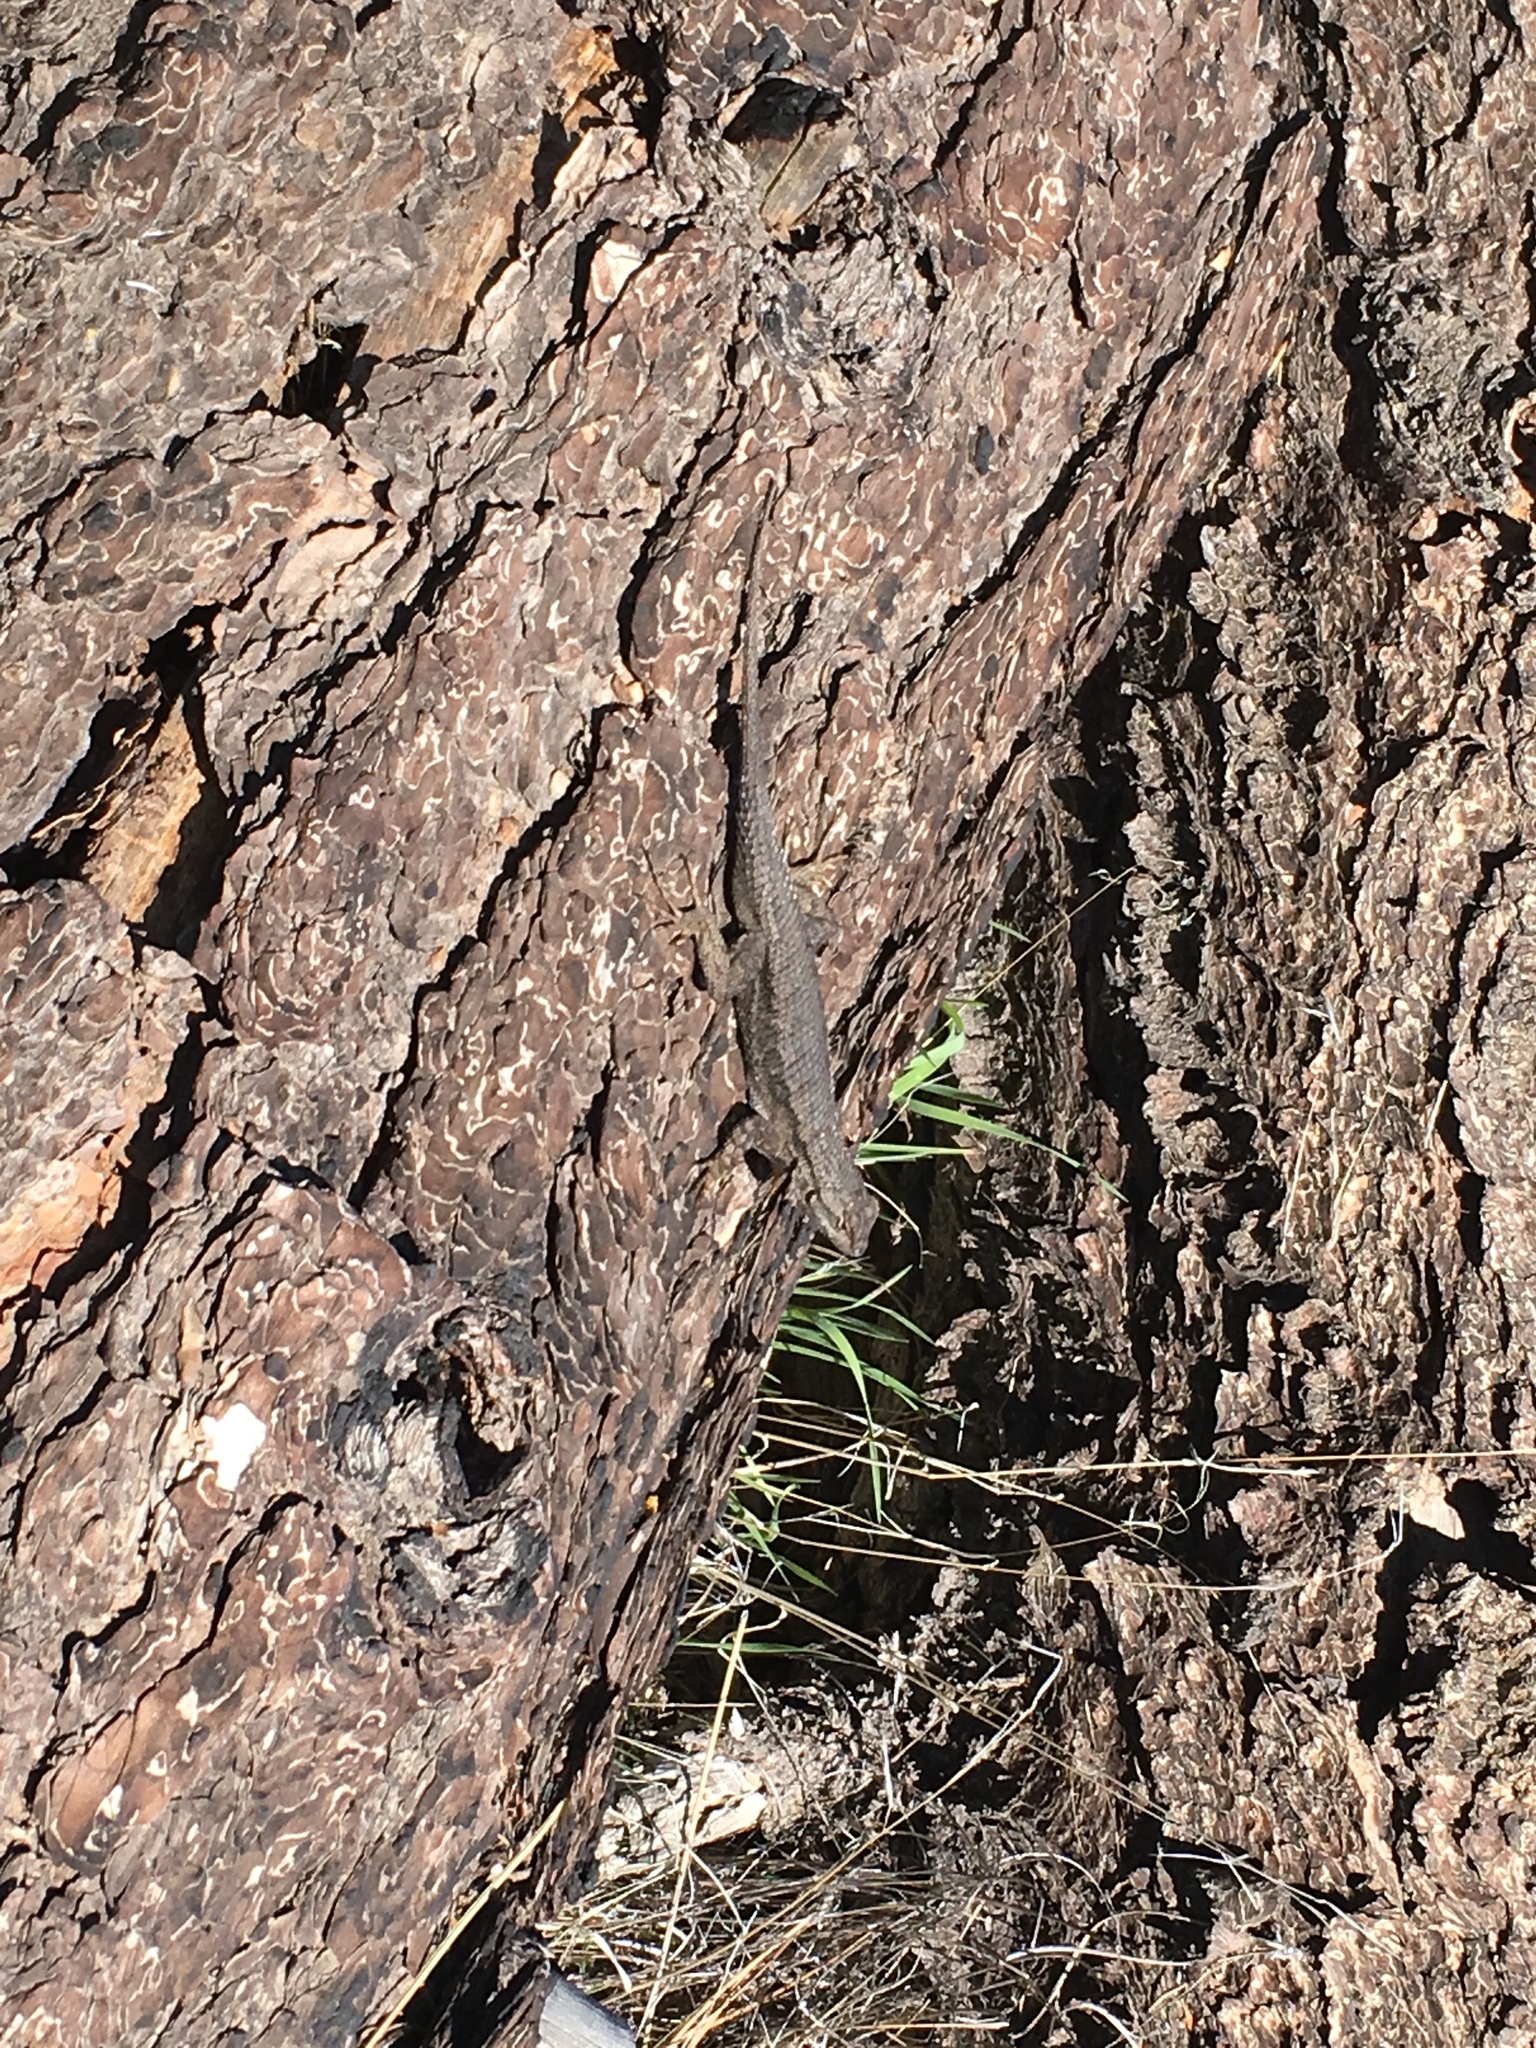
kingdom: Animalia
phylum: Chordata
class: Squamata
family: Phrynosomatidae
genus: Sceloporus
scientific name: Sceloporus occidentalis
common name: Western fence lizard
